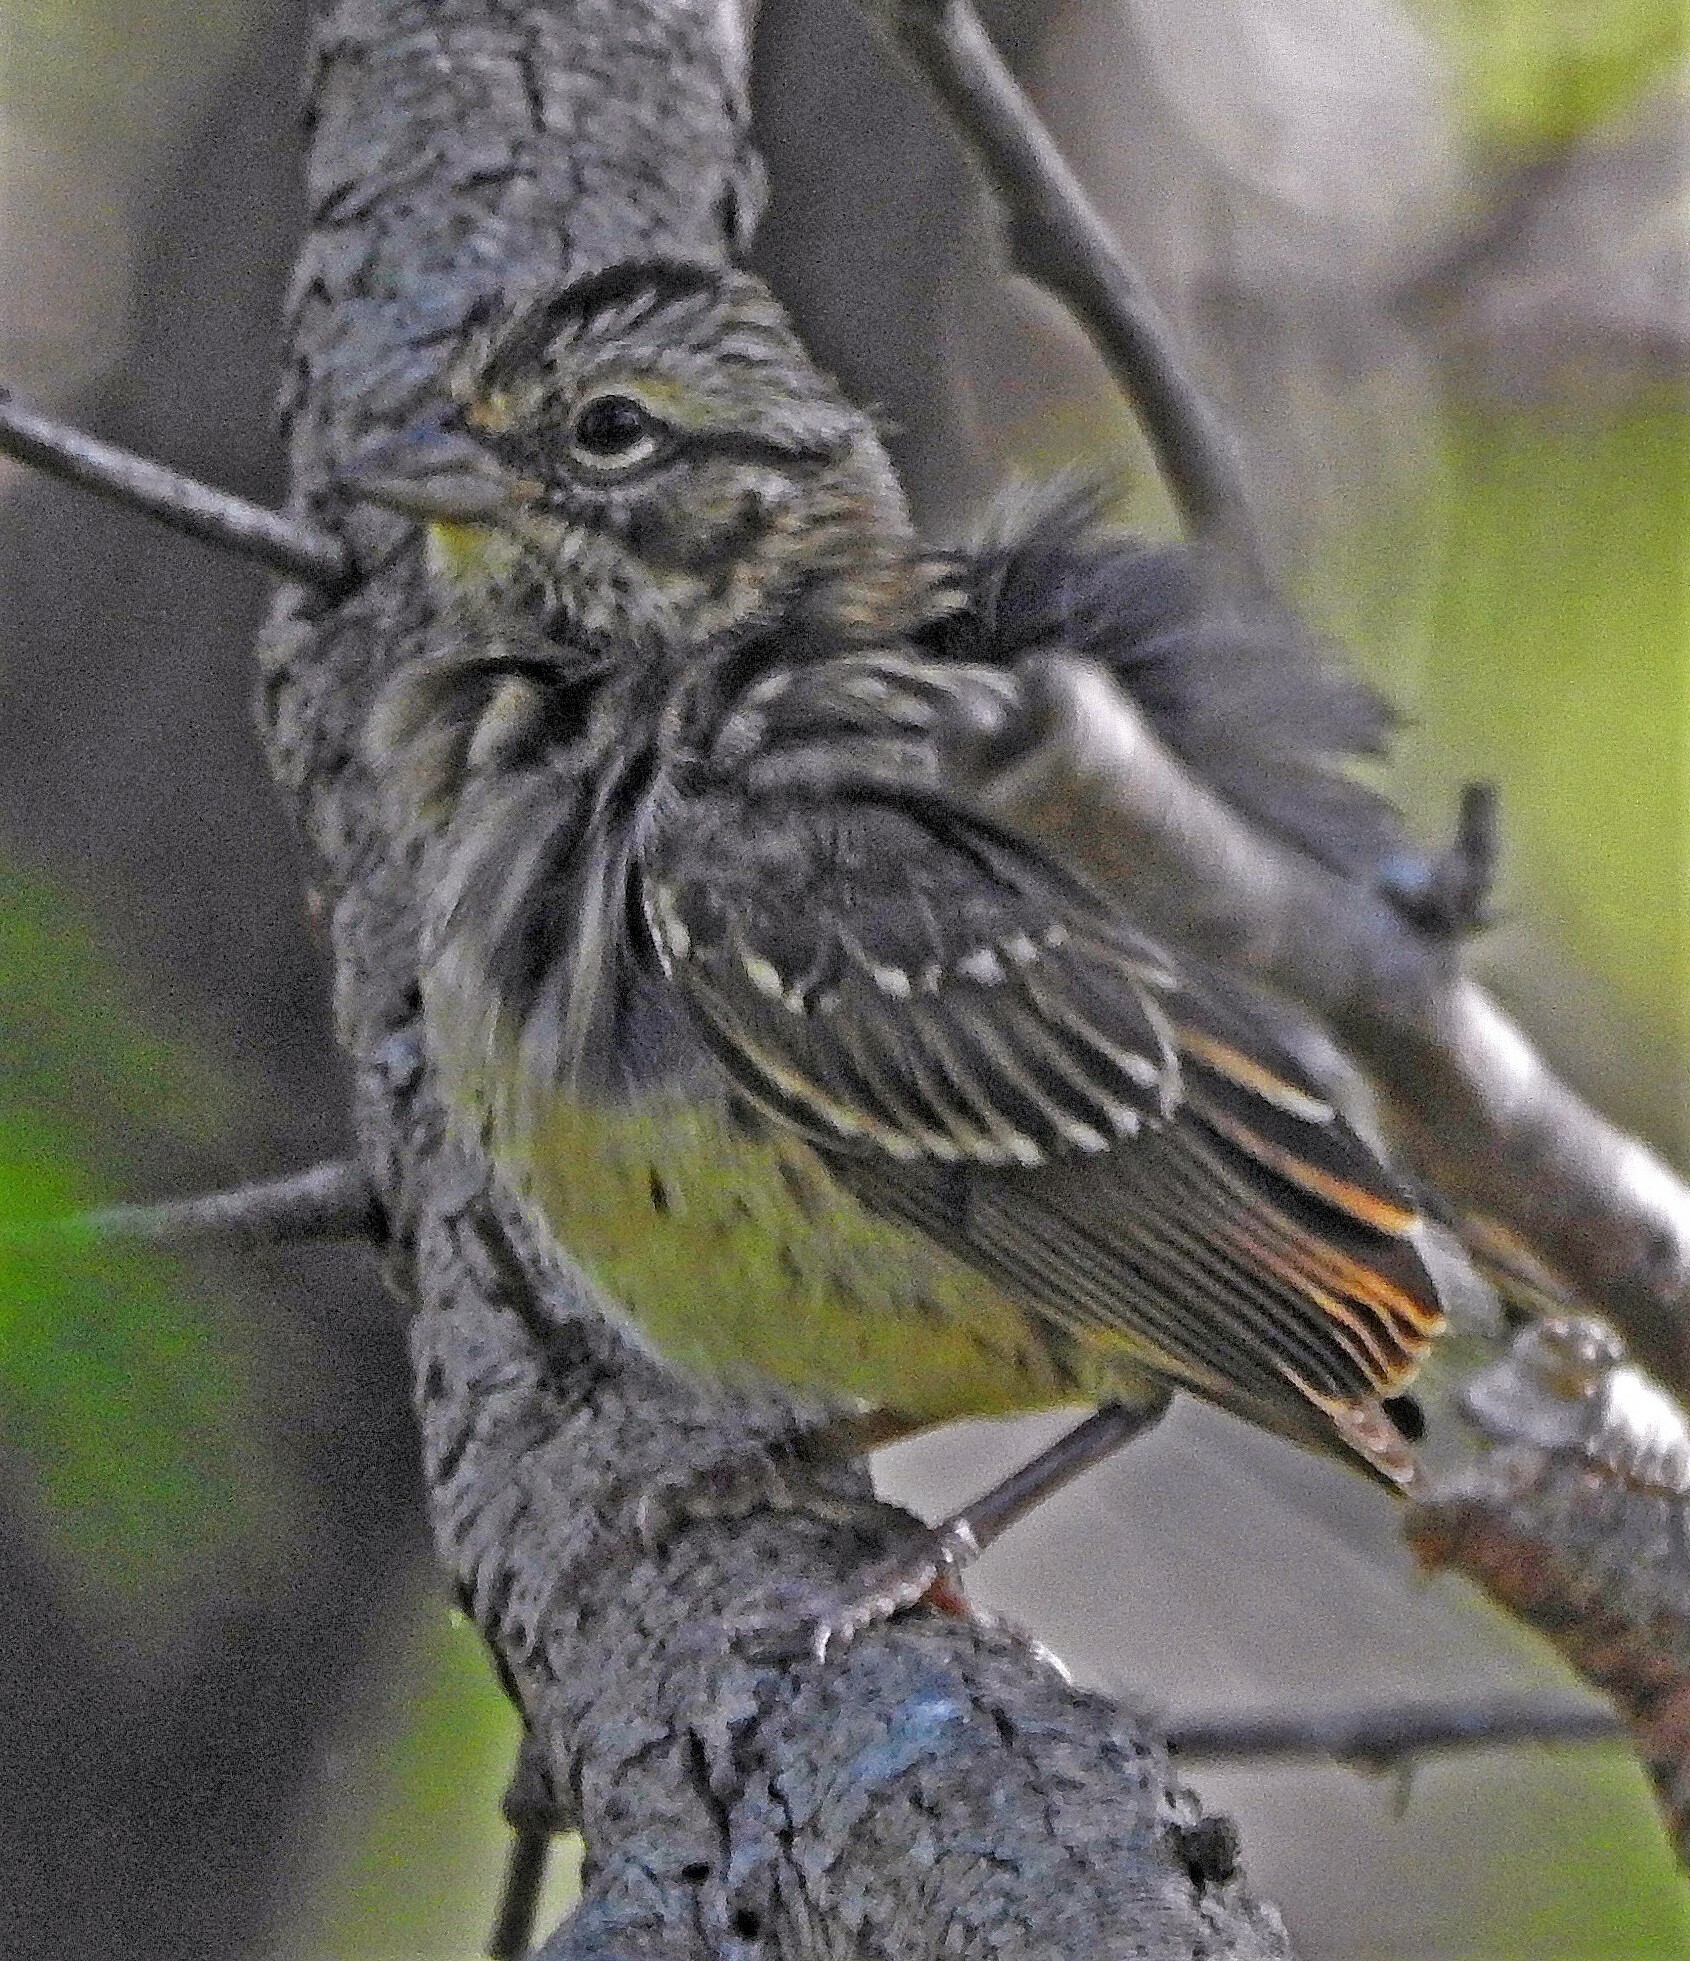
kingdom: Animalia
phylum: Chordata
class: Aves
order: Passeriformes
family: Passerellidae
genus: Zonotrichia
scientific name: Zonotrichia capensis
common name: Rufous-collared sparrow
